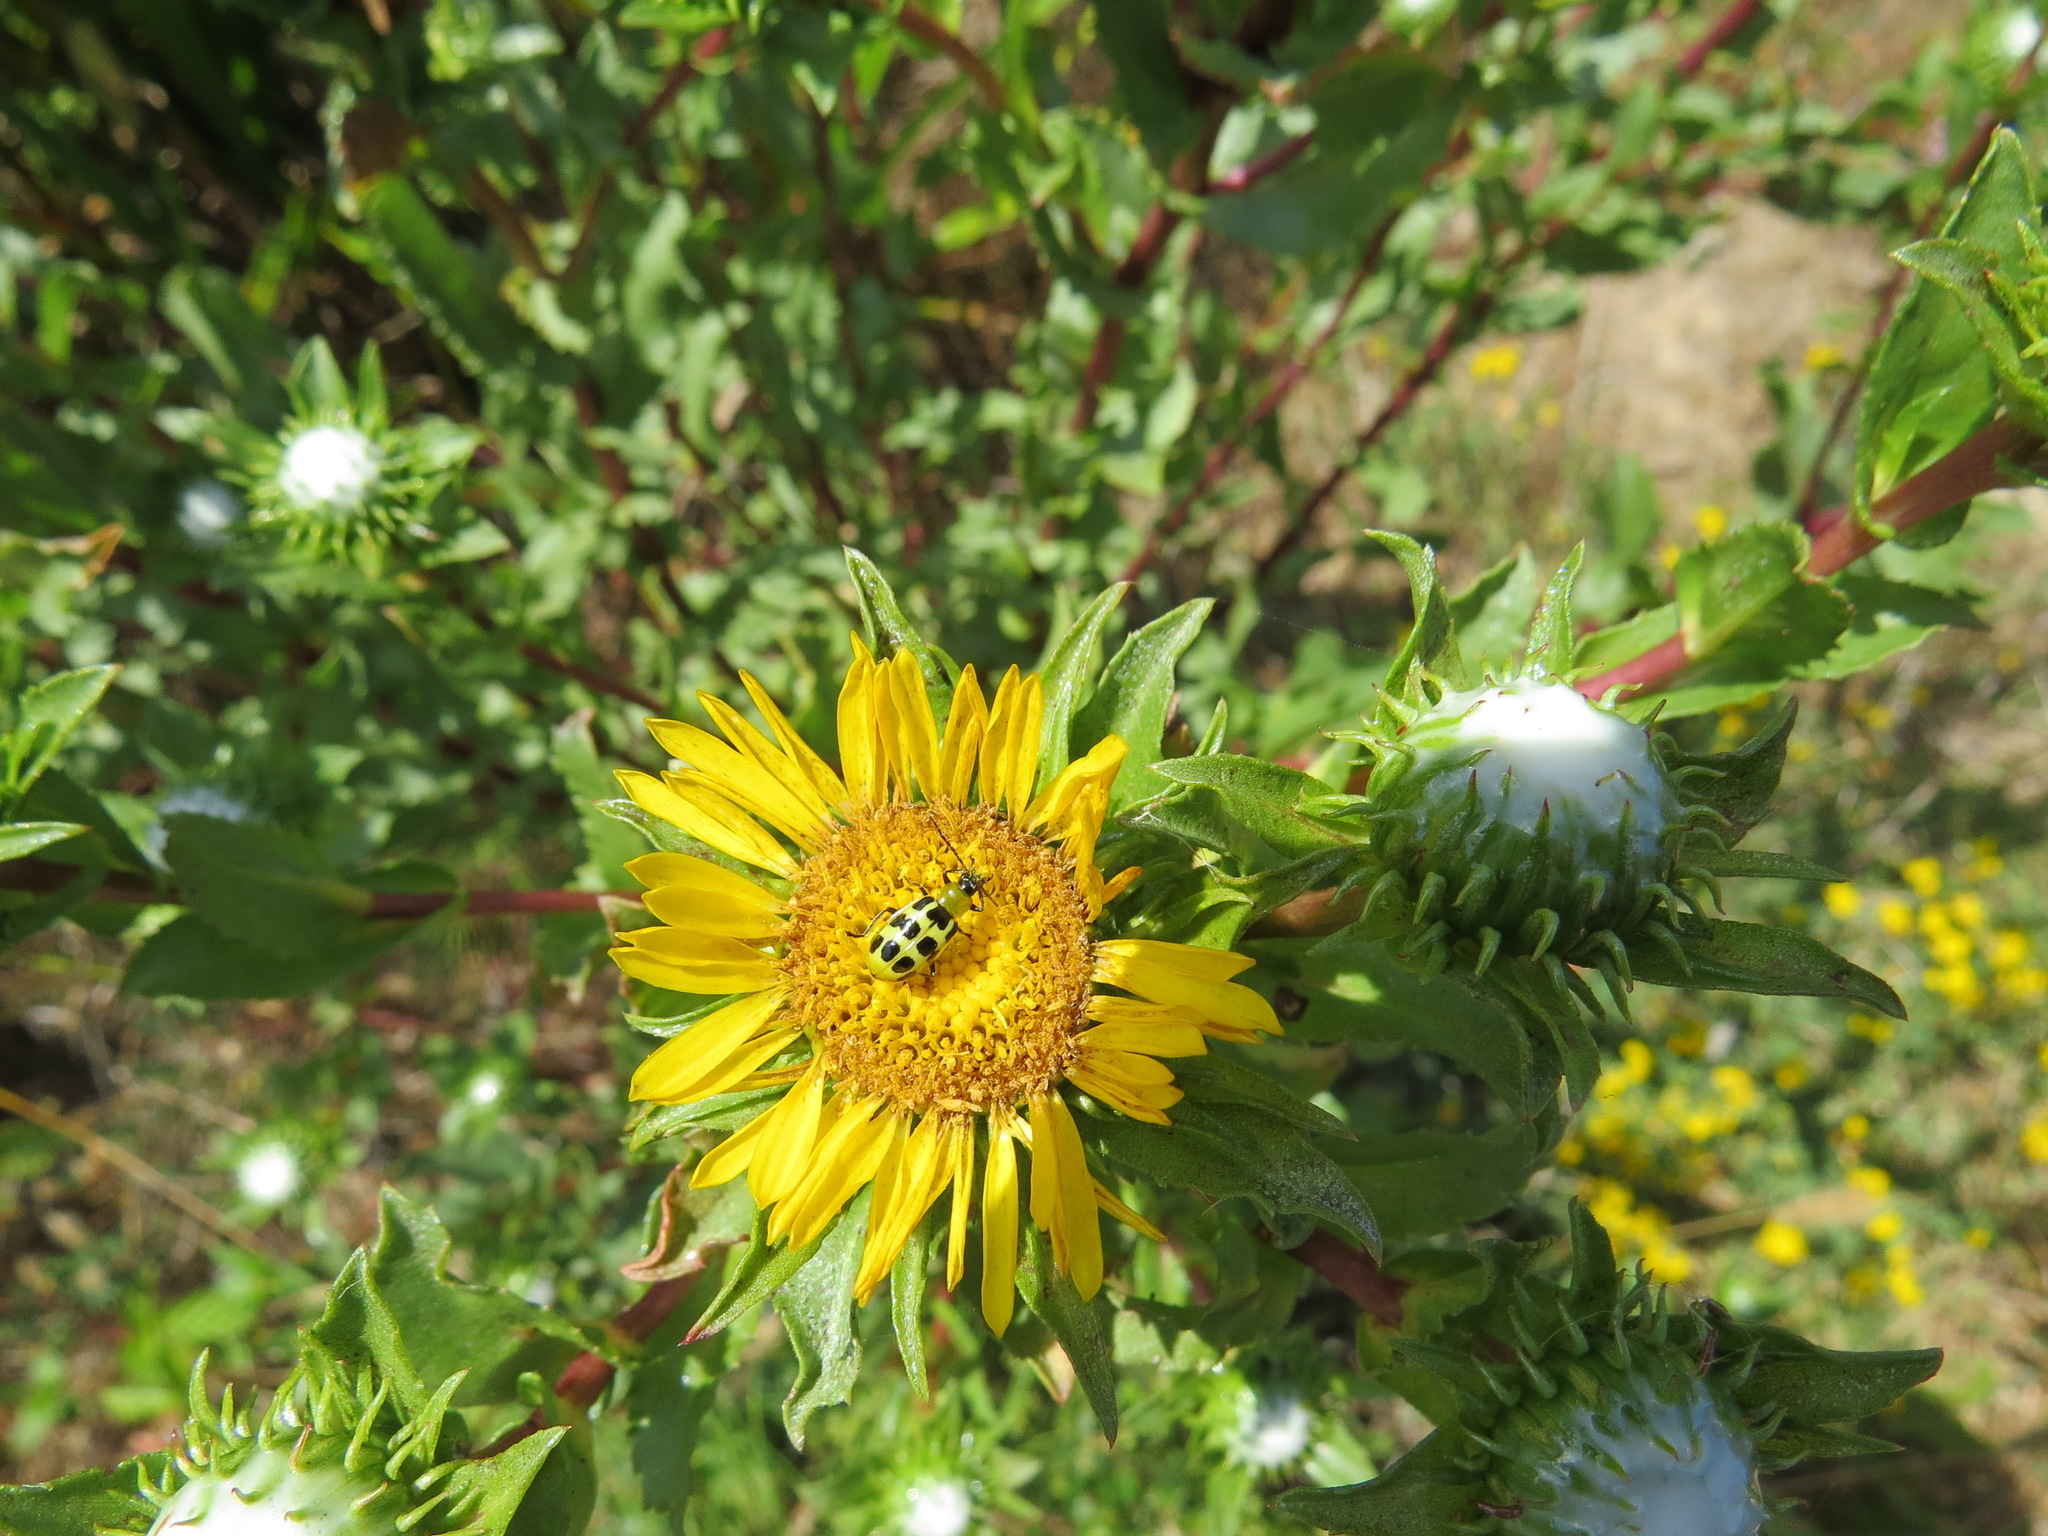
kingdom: Animalia
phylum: Arthropoda
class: Insecta
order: Coleoptera
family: Chrysomelidae
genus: Diabrotica
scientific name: Diabrotica undecimpunctata
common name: Spotted cucumber beetle
